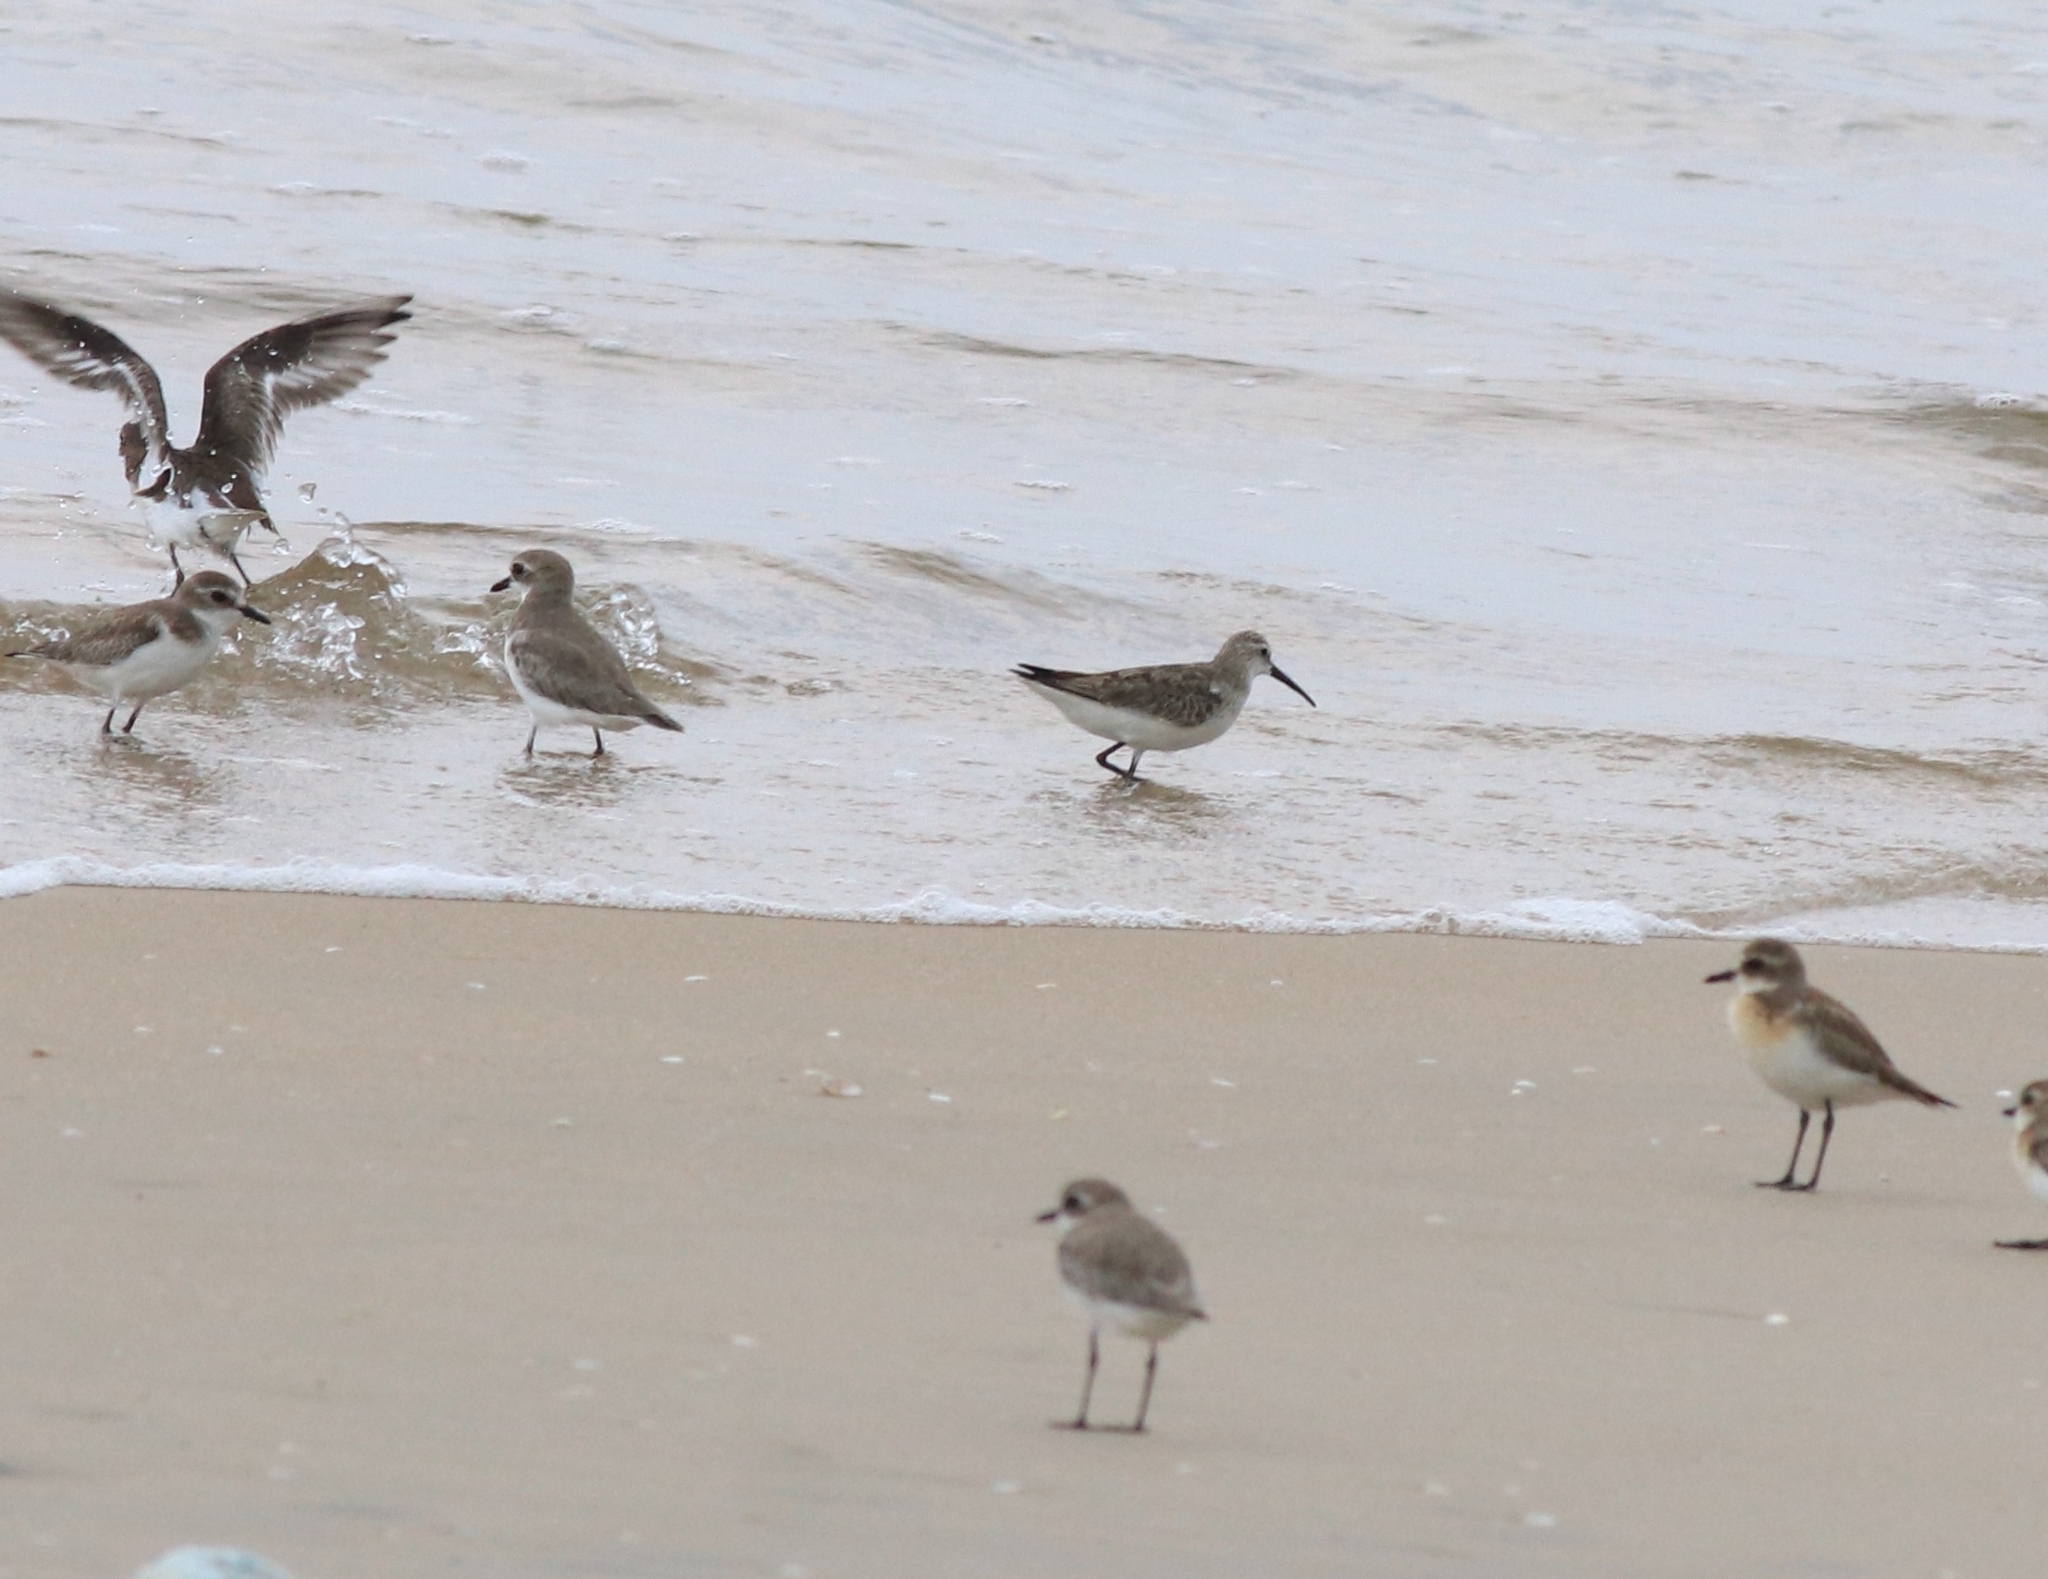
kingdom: Animalia
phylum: Chordata
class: Aves
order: Charadriiformes
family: Scolopacidae
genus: Calidris
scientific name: Calidris ferruginea
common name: Curlew sandpiper
